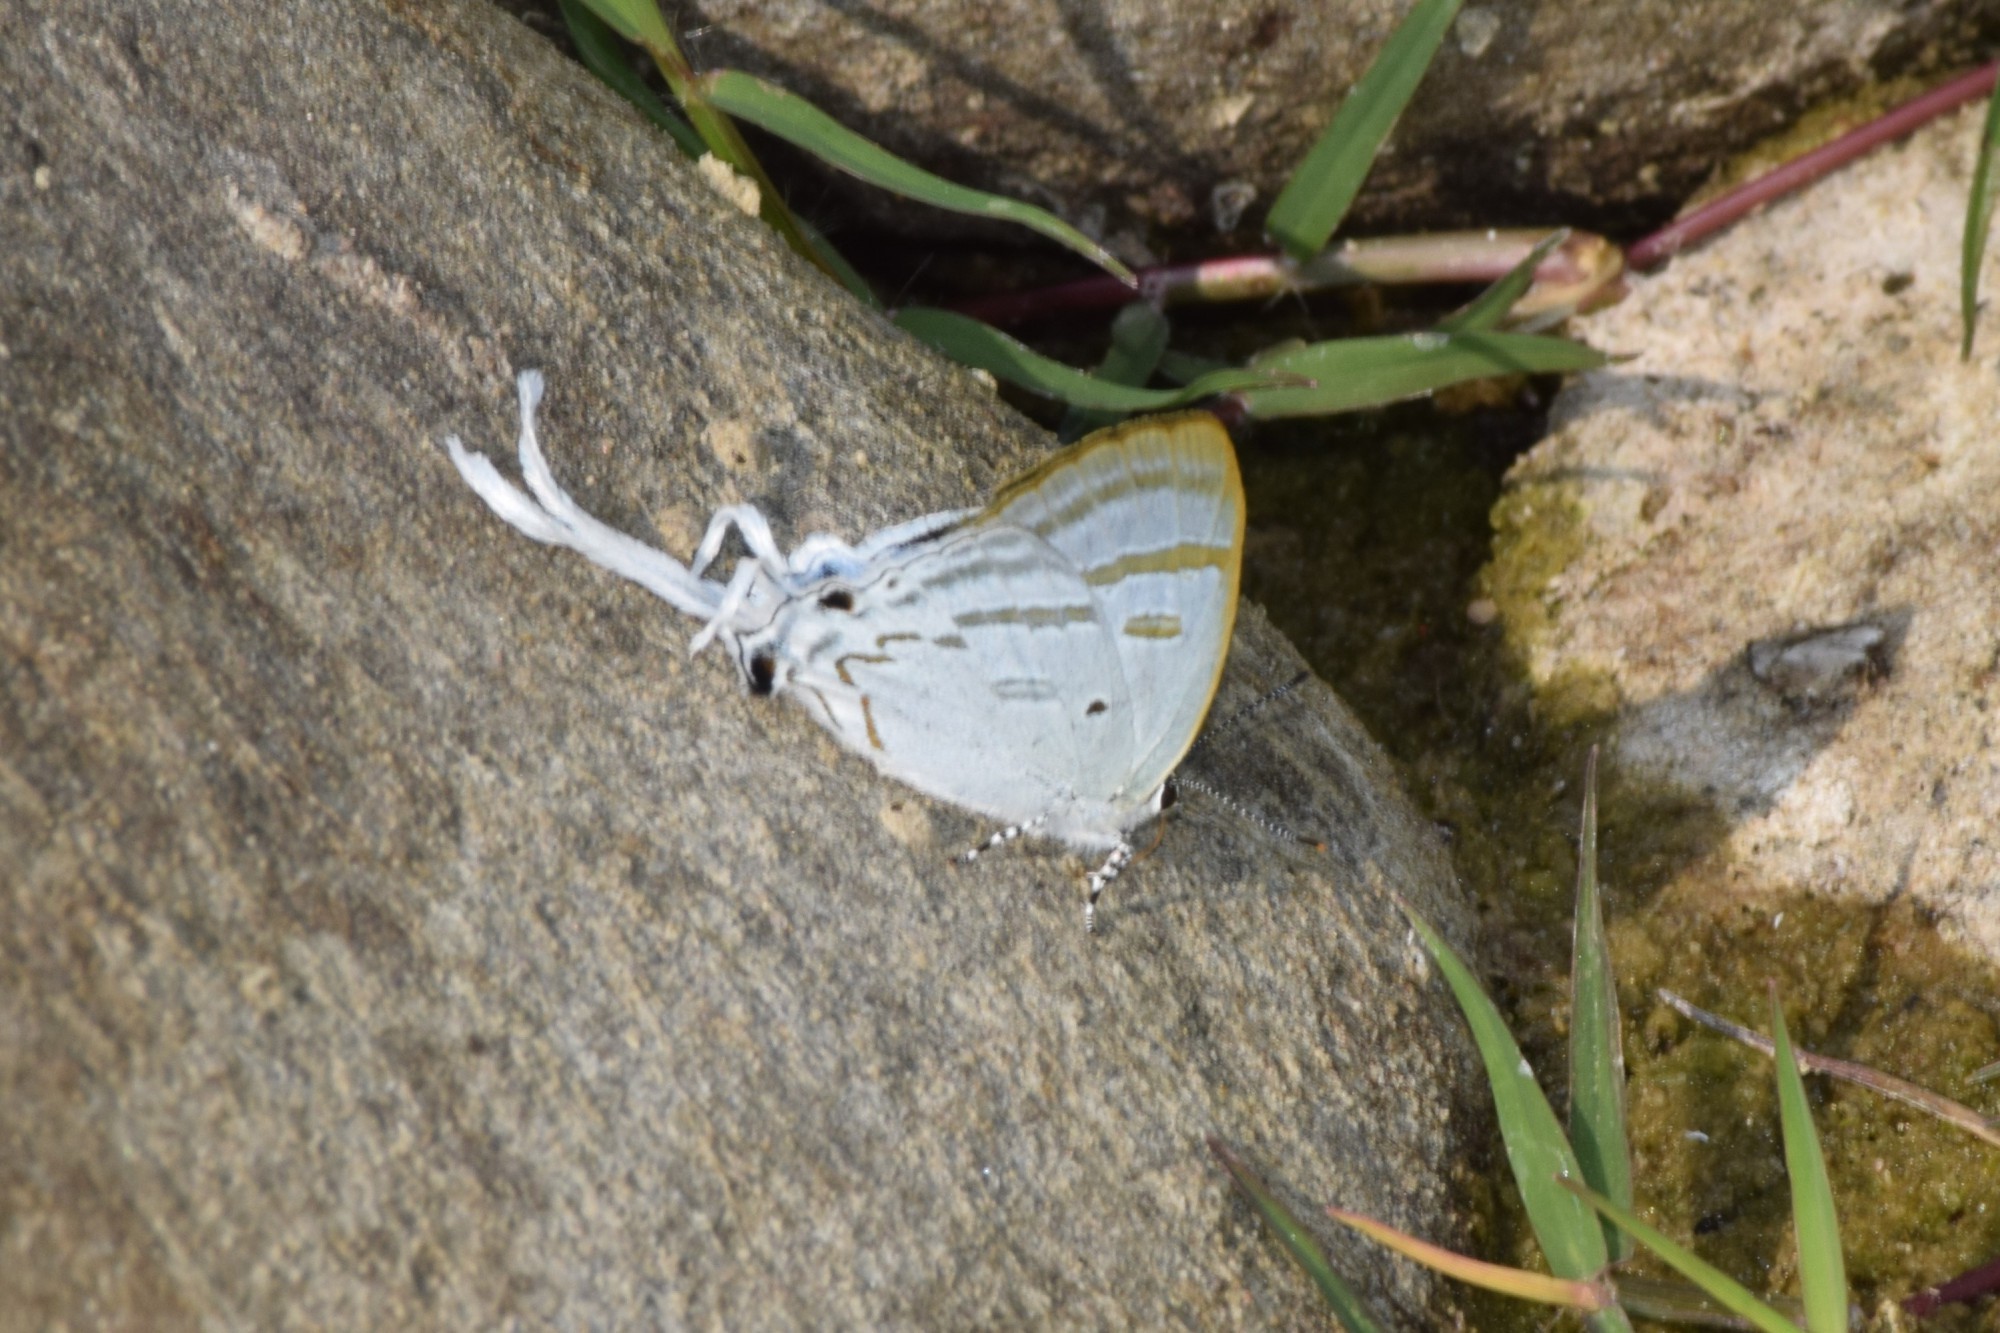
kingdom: Animalia
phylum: Arthropoda
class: Insecta
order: Lepidoptera
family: Lycaenidae
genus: Zeltus
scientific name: Zeltus amasa
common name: Fluffy tit
